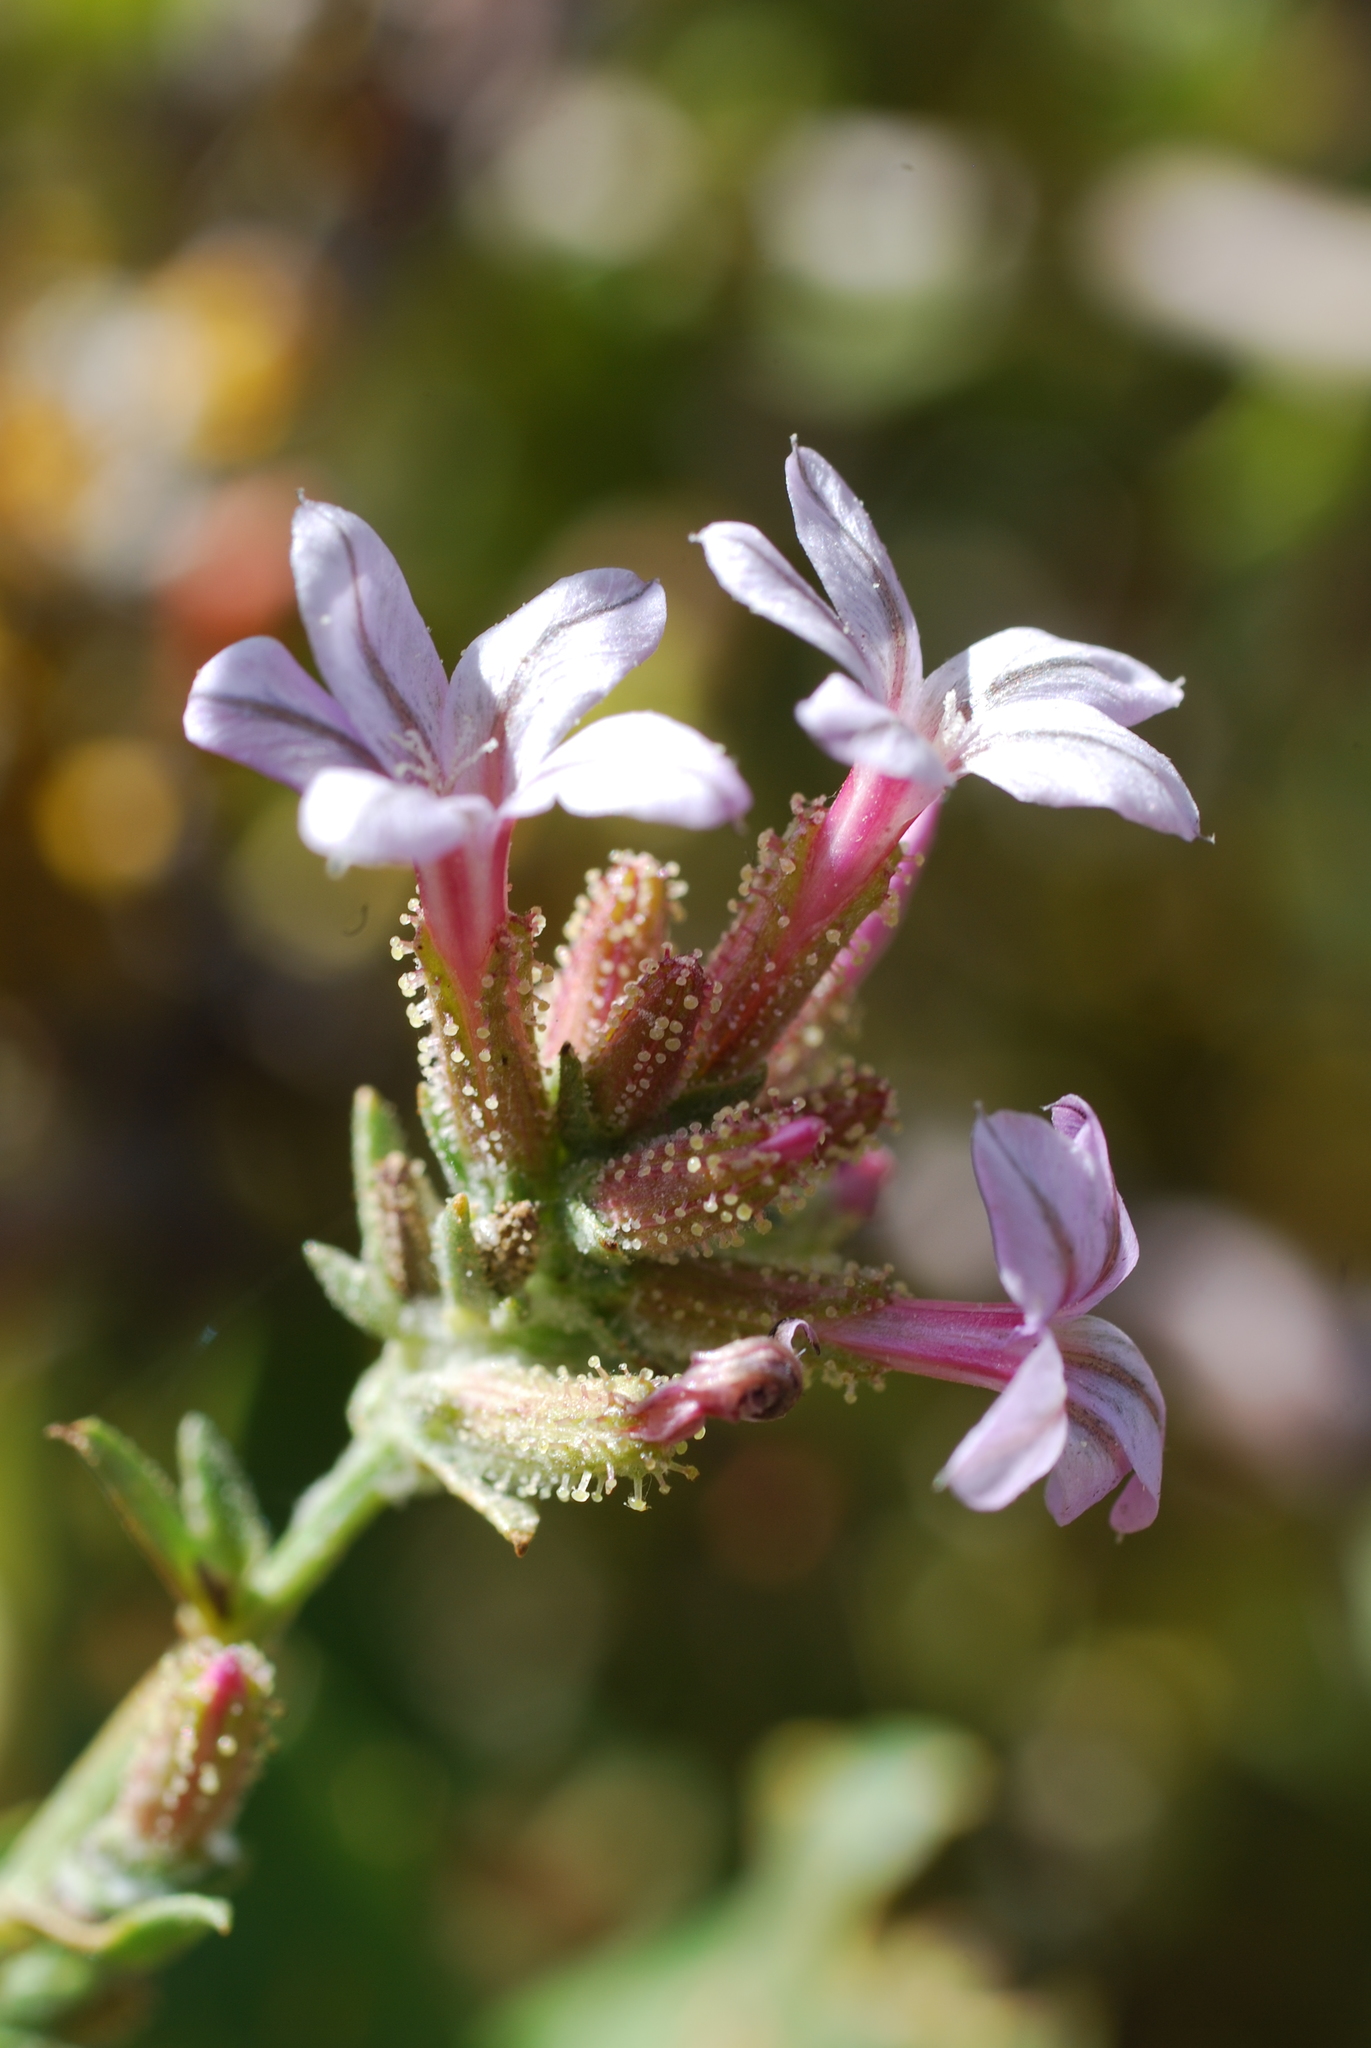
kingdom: Plantae
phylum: Tracheophyta
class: Magnoliopsida
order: Caryophyllales
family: Plumbaginaceae
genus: Plumbago
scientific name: Plumbago europaea
